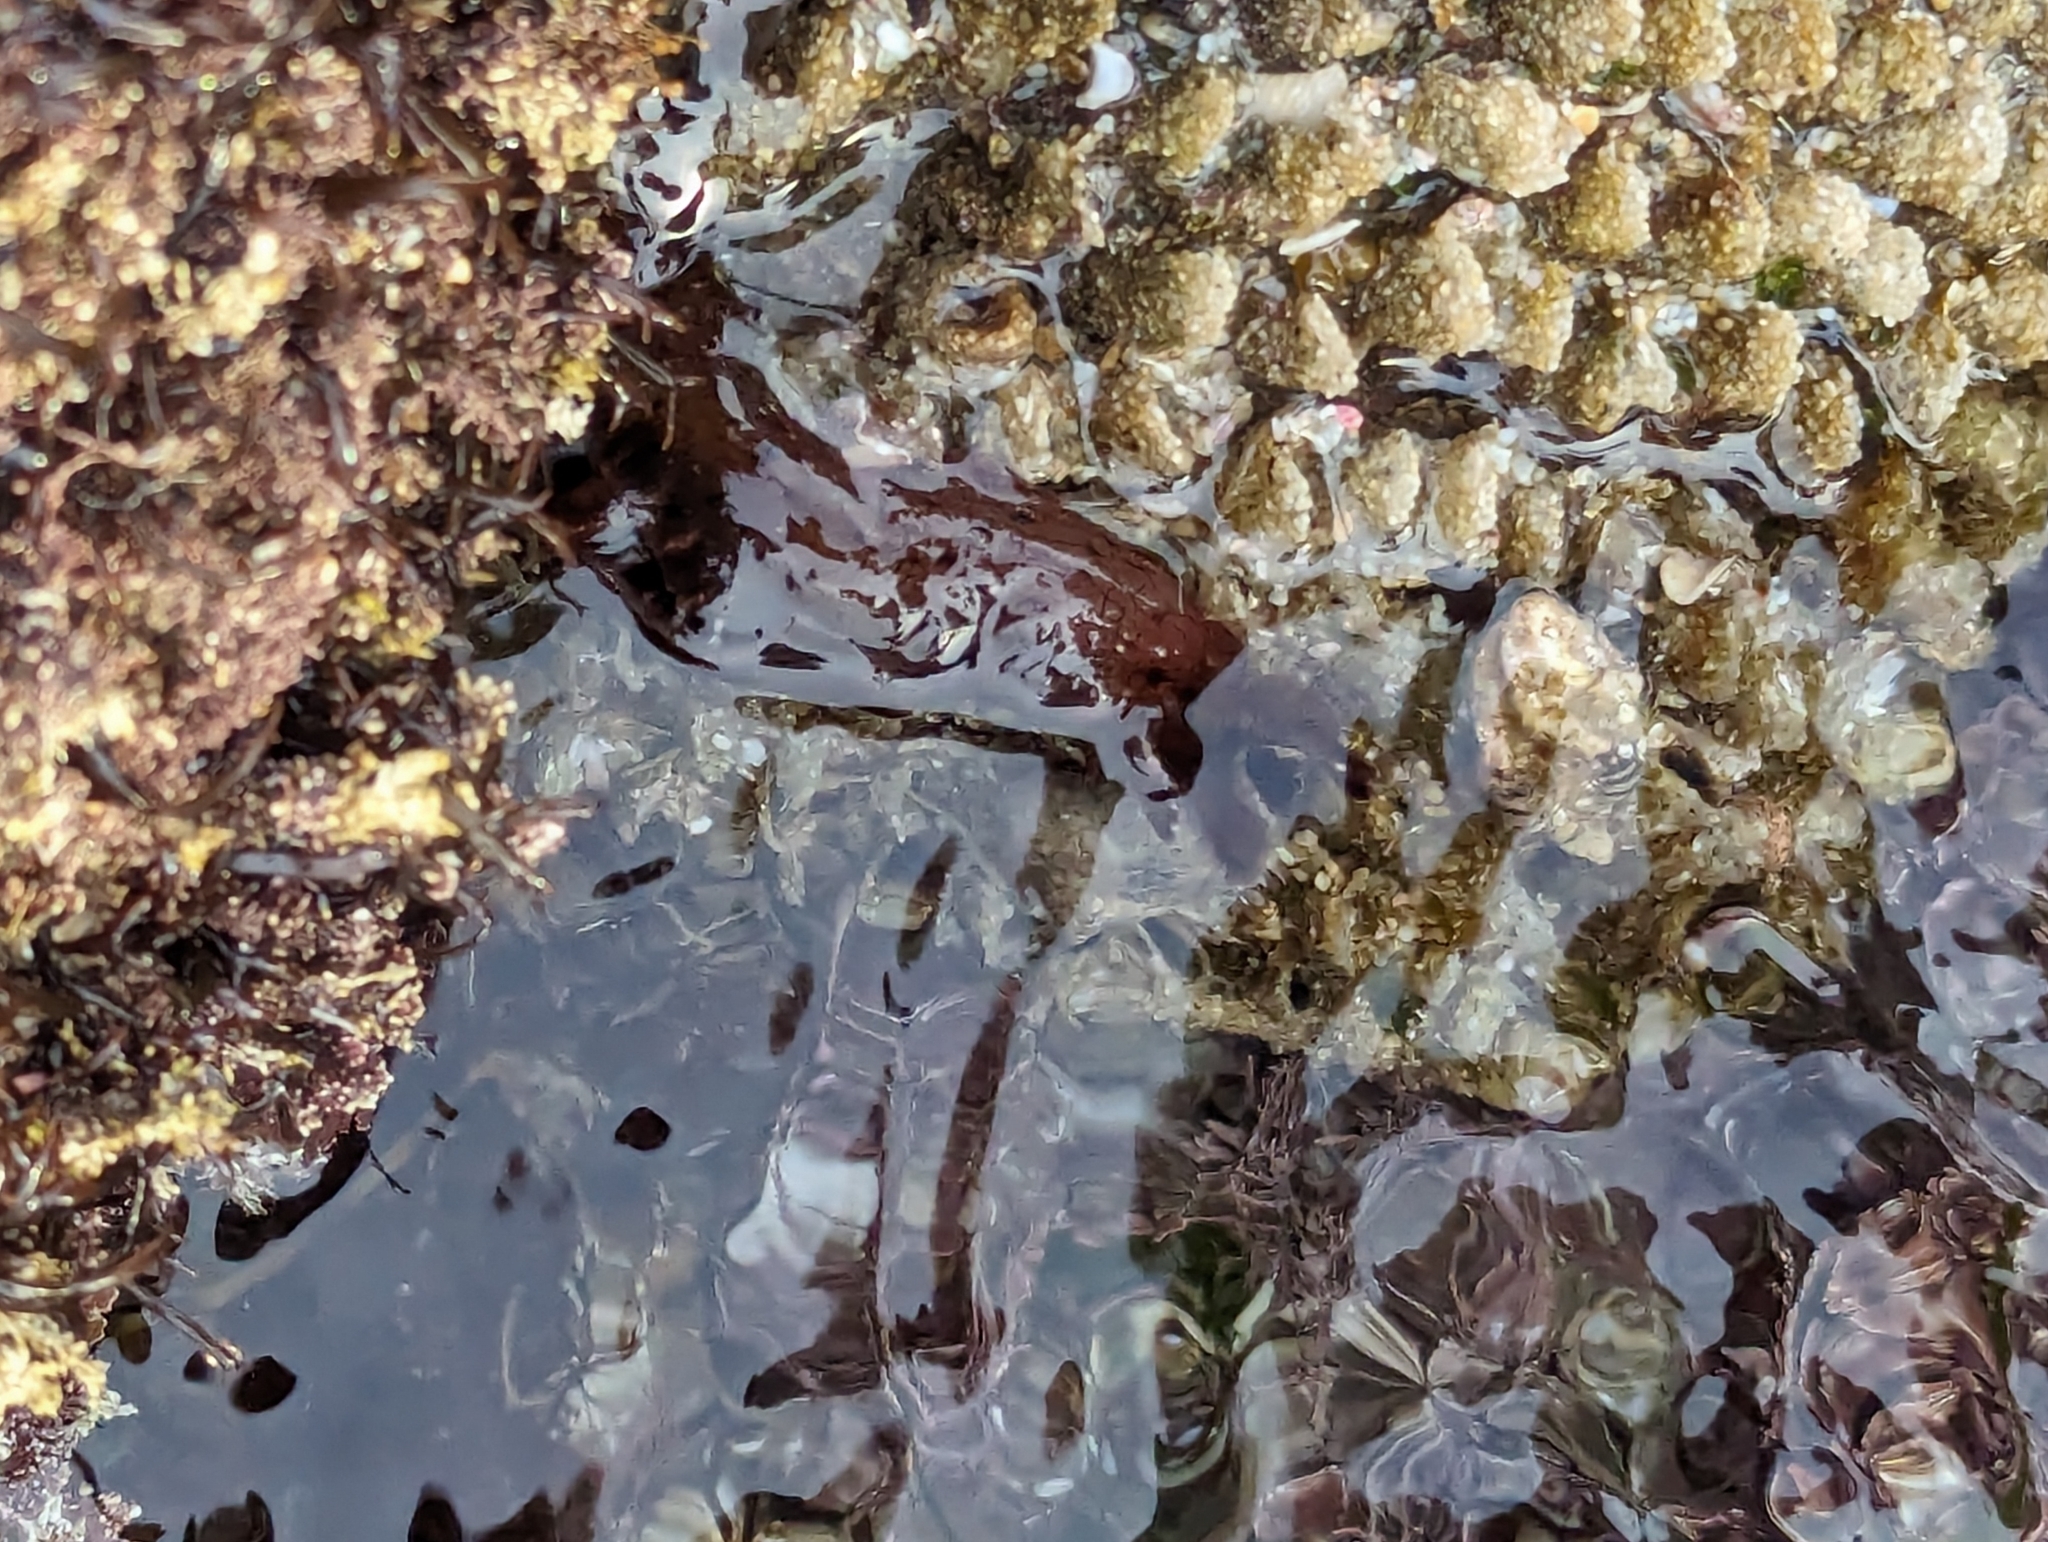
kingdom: Animalia
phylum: Mollusca
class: Gastropoda
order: Aplysiida
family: Aplysiidae
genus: Aplysia
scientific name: Aplysia californica
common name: California seahare
